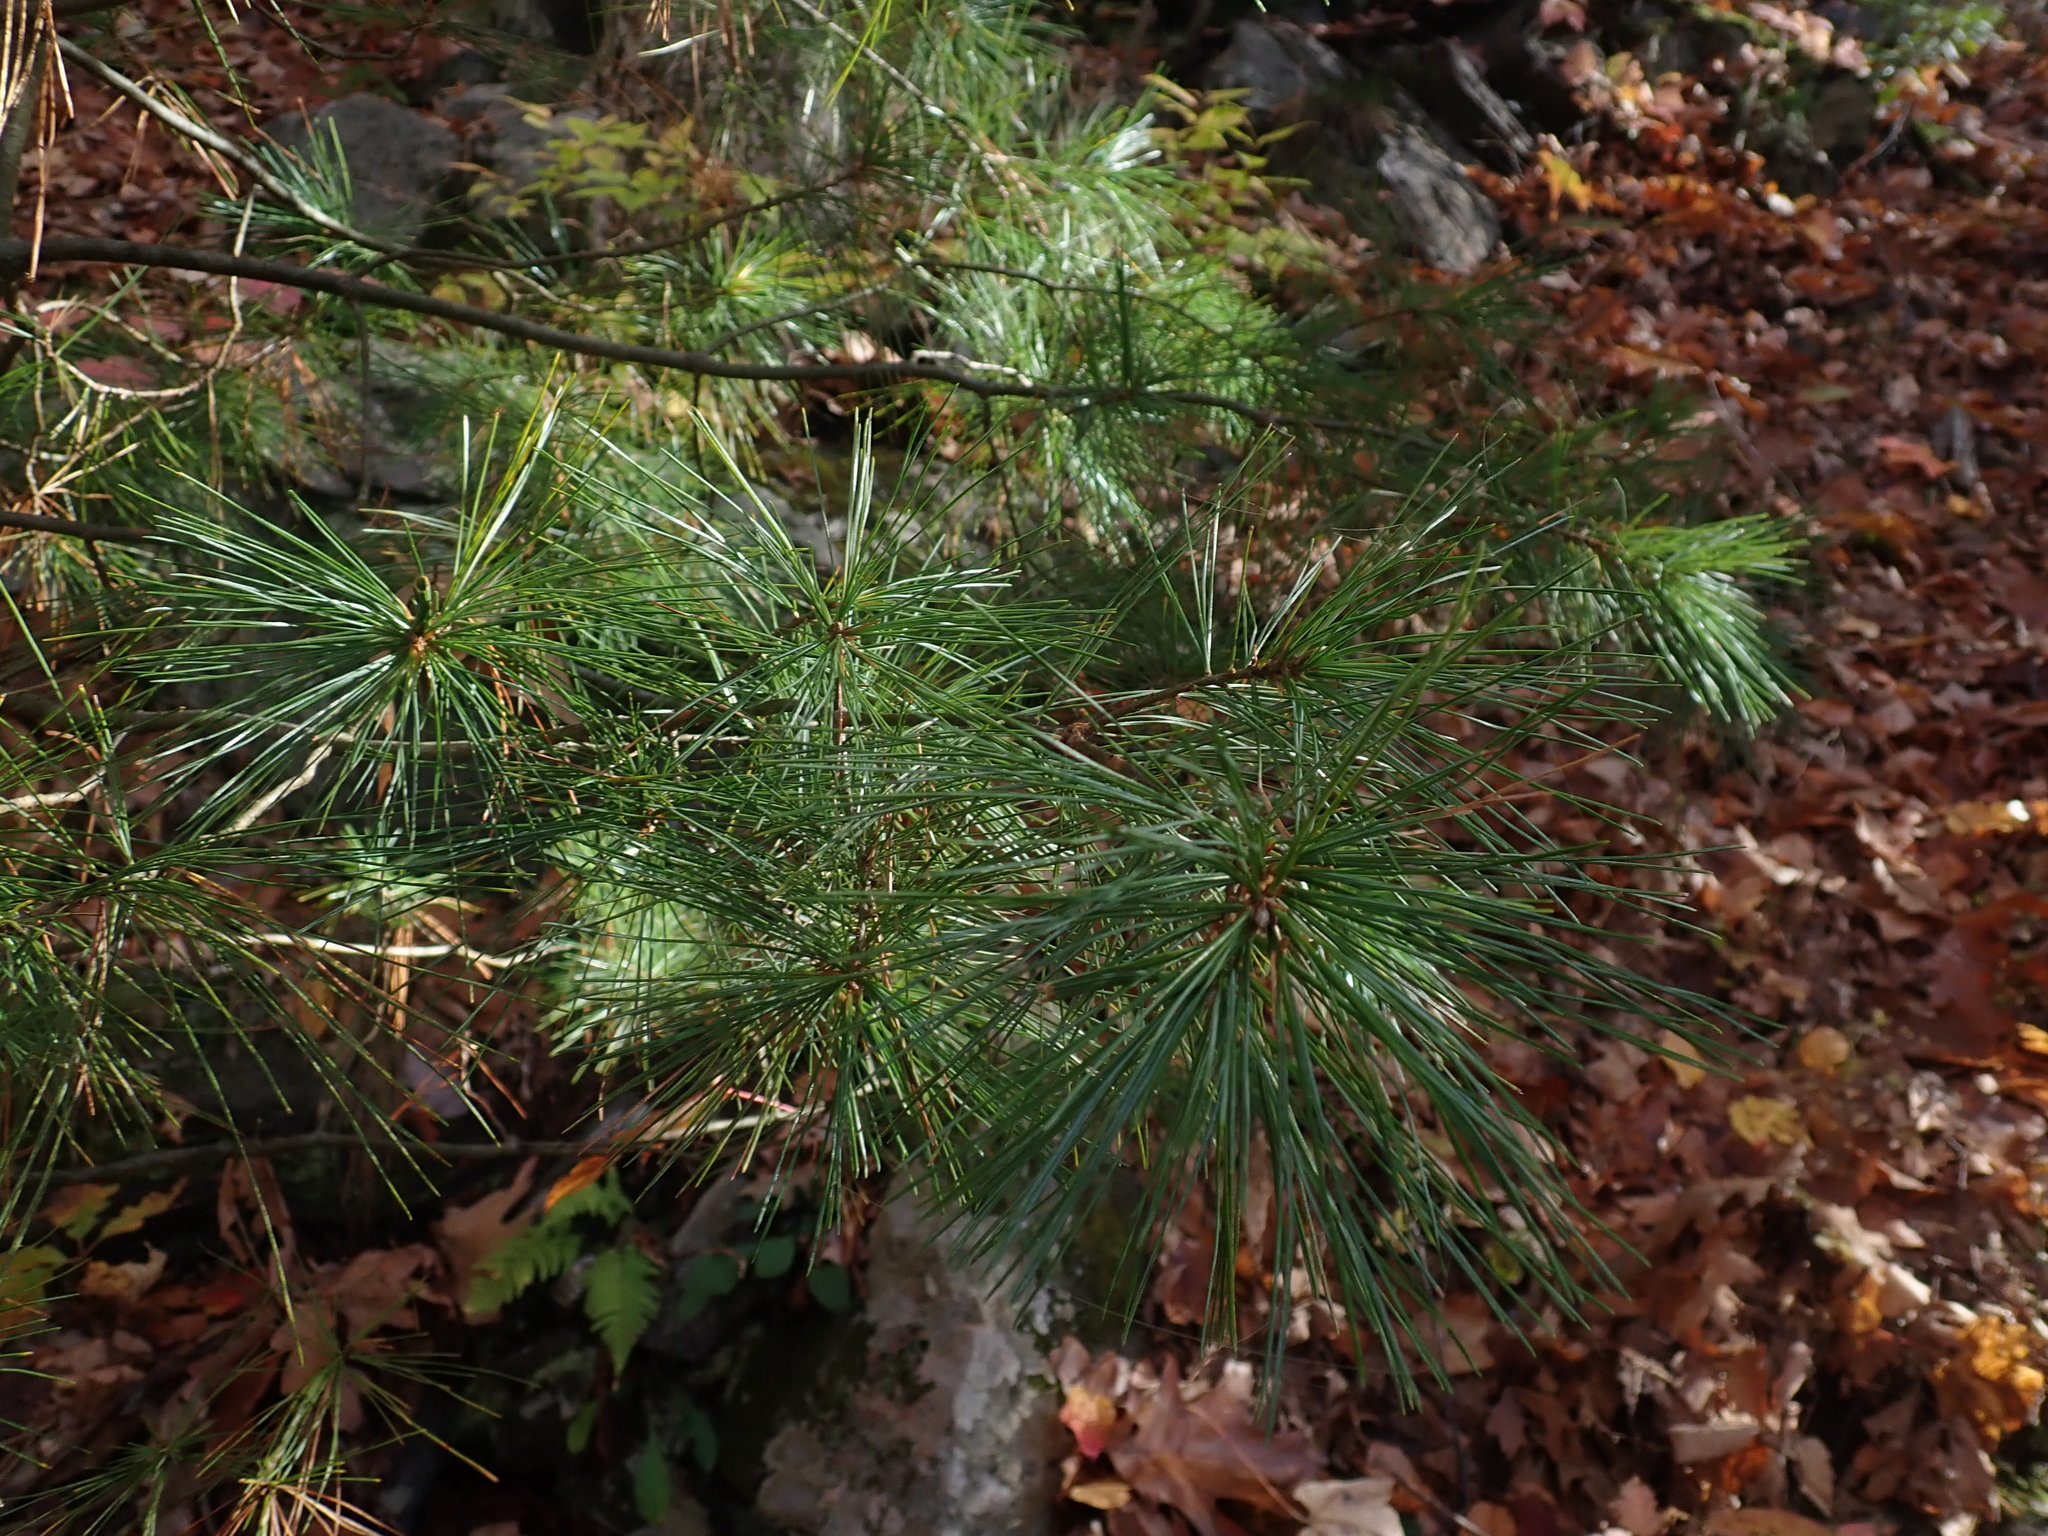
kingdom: Plantae
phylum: Tracheophyta
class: Pinopsida
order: Pinales
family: Pinaceae
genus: Pinus
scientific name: Pinus strobus
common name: Weymouth pine
